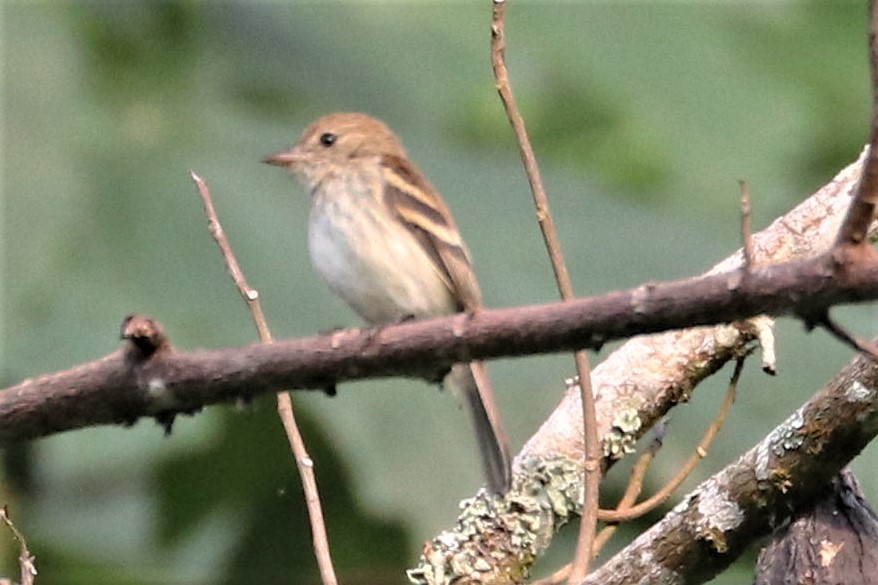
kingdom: Animalia
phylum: Chordata
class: Aves
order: Passeriformes
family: Tyrannidae
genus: Myiophobus
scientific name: Myiophobus fasciatus
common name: Bran-colored flycatcher
